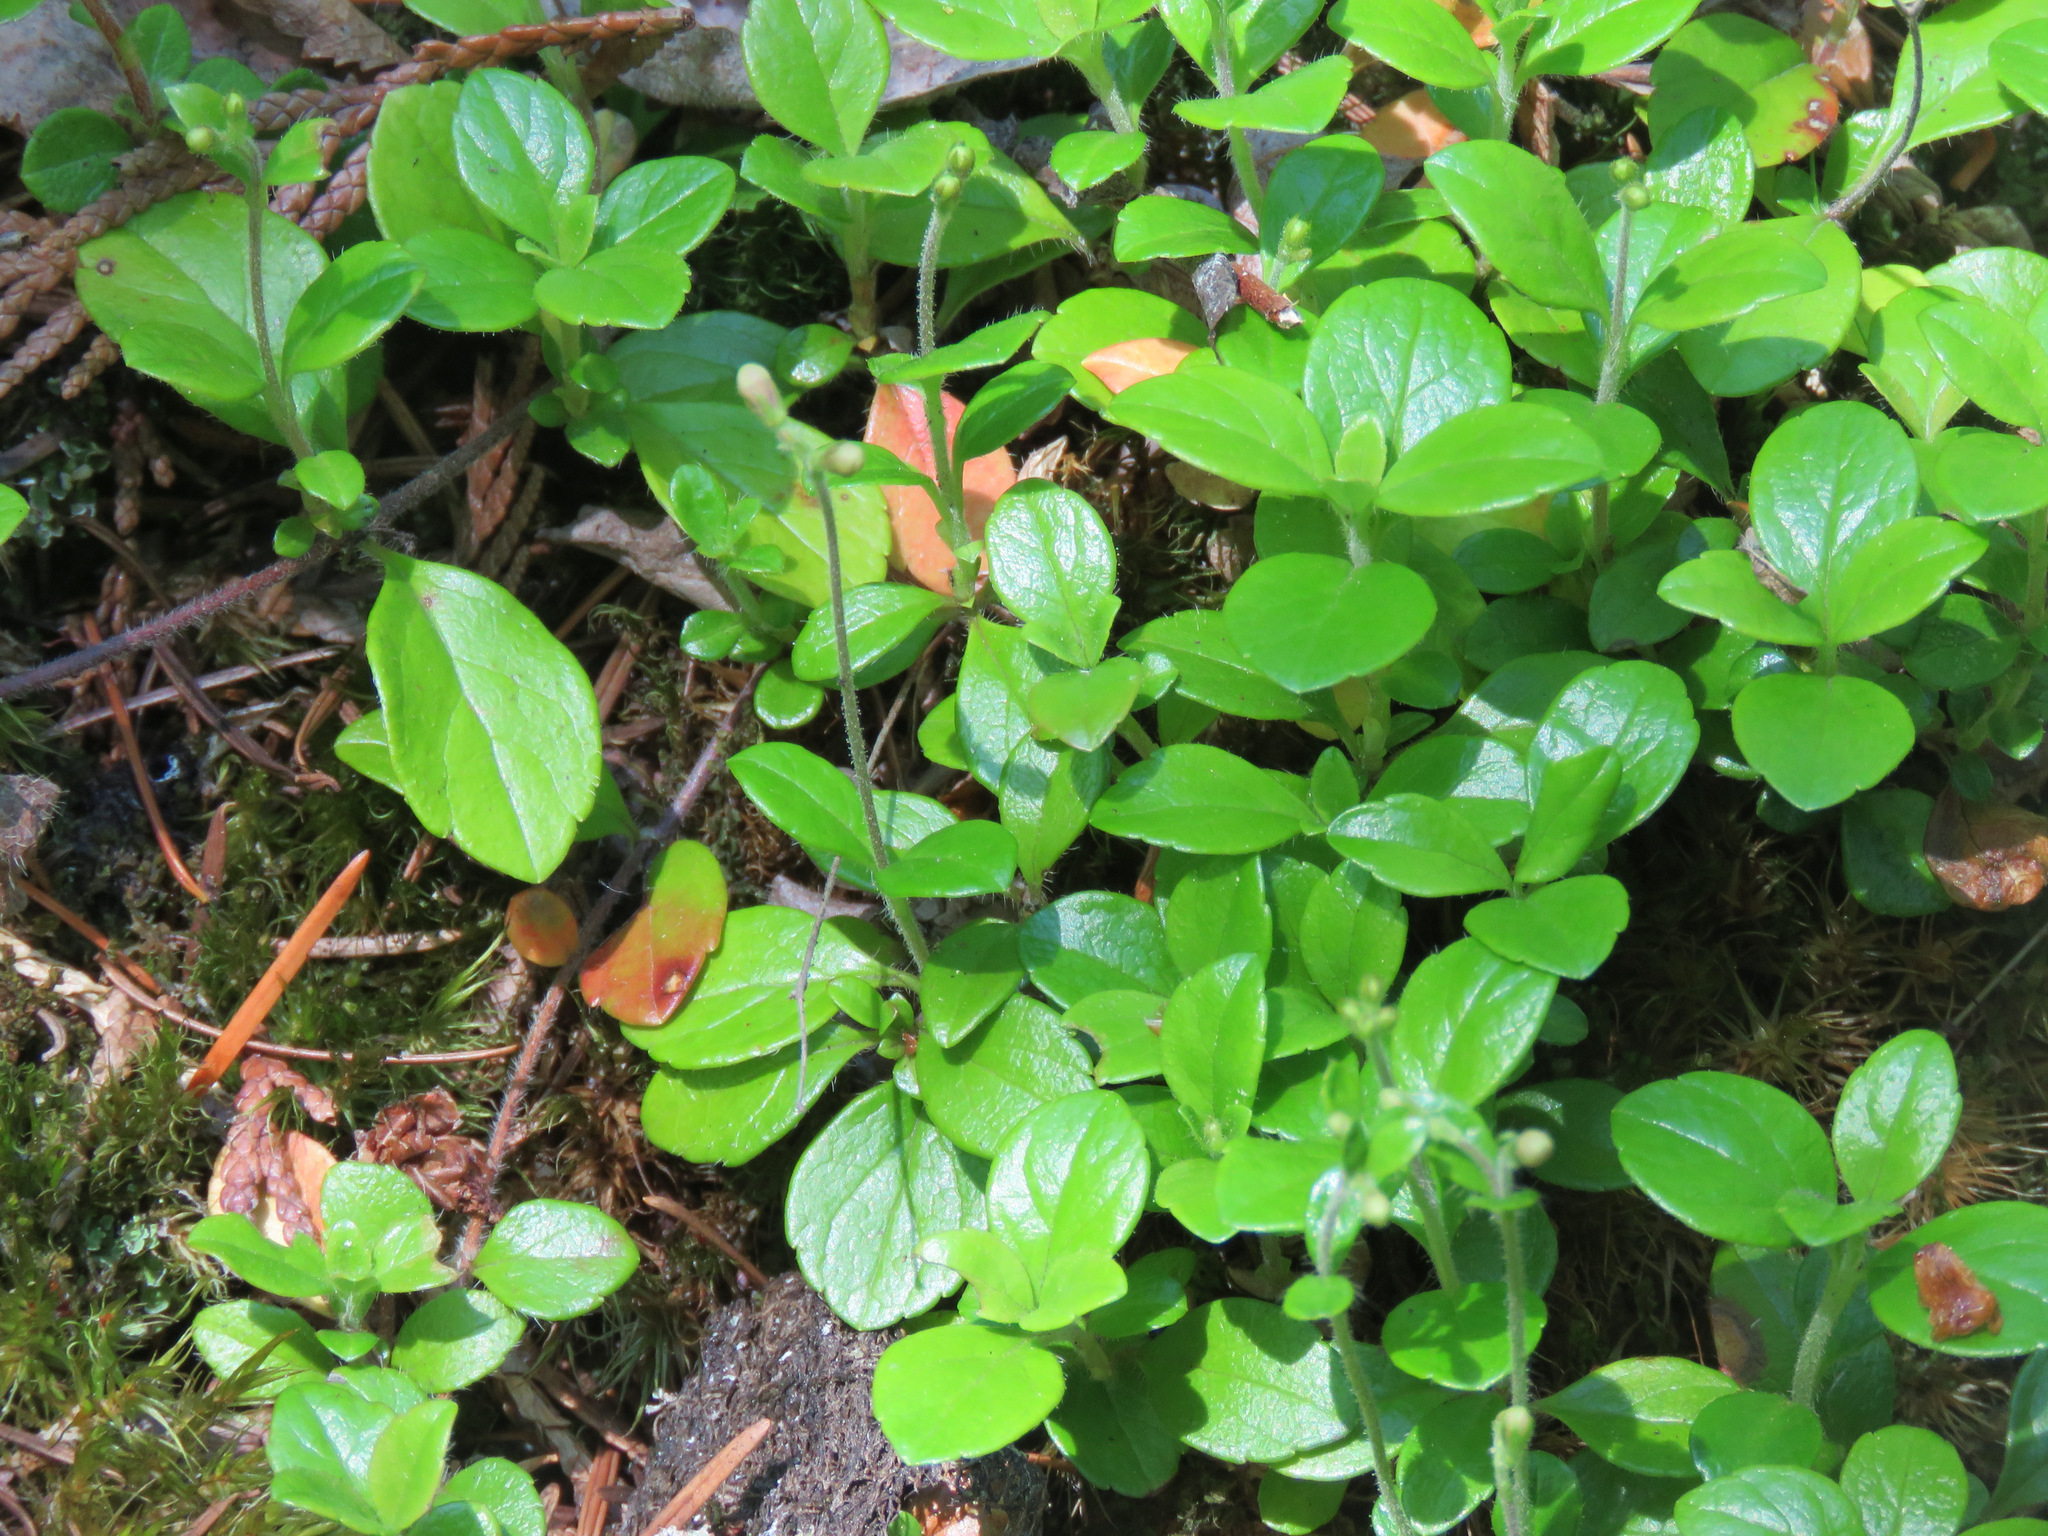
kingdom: Plantae
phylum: Tracheophyta
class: Magnoliopsida
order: Dipsacales
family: Caprifoliaceae
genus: Linnaea
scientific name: Linnaea borealis
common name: Twinflower
